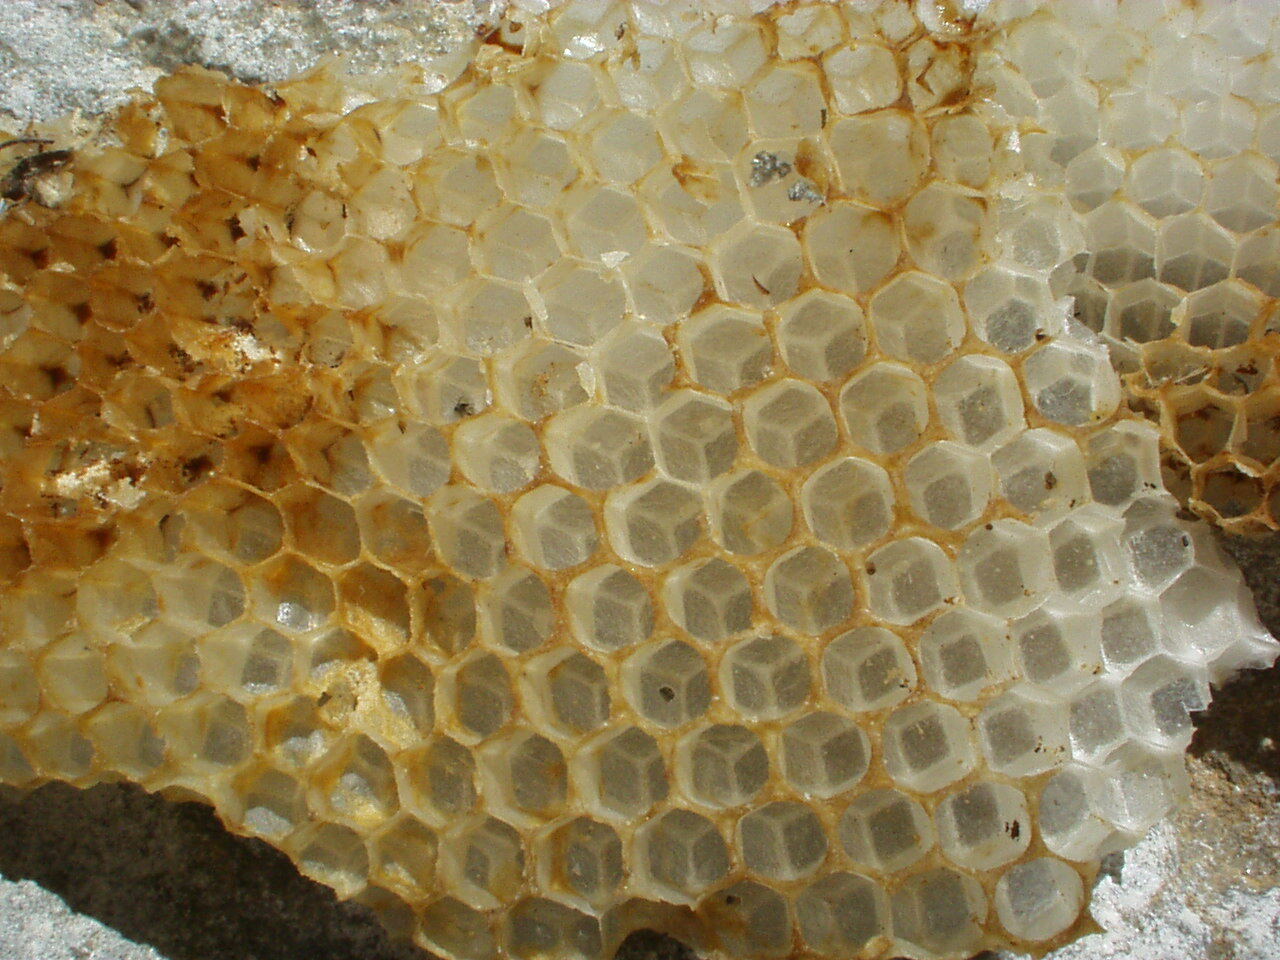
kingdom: Animalia
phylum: Arthropoda
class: Insecta
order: Hymenoptera
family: Apidae
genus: Apis
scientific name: Apis mellifera
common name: Honey bee
